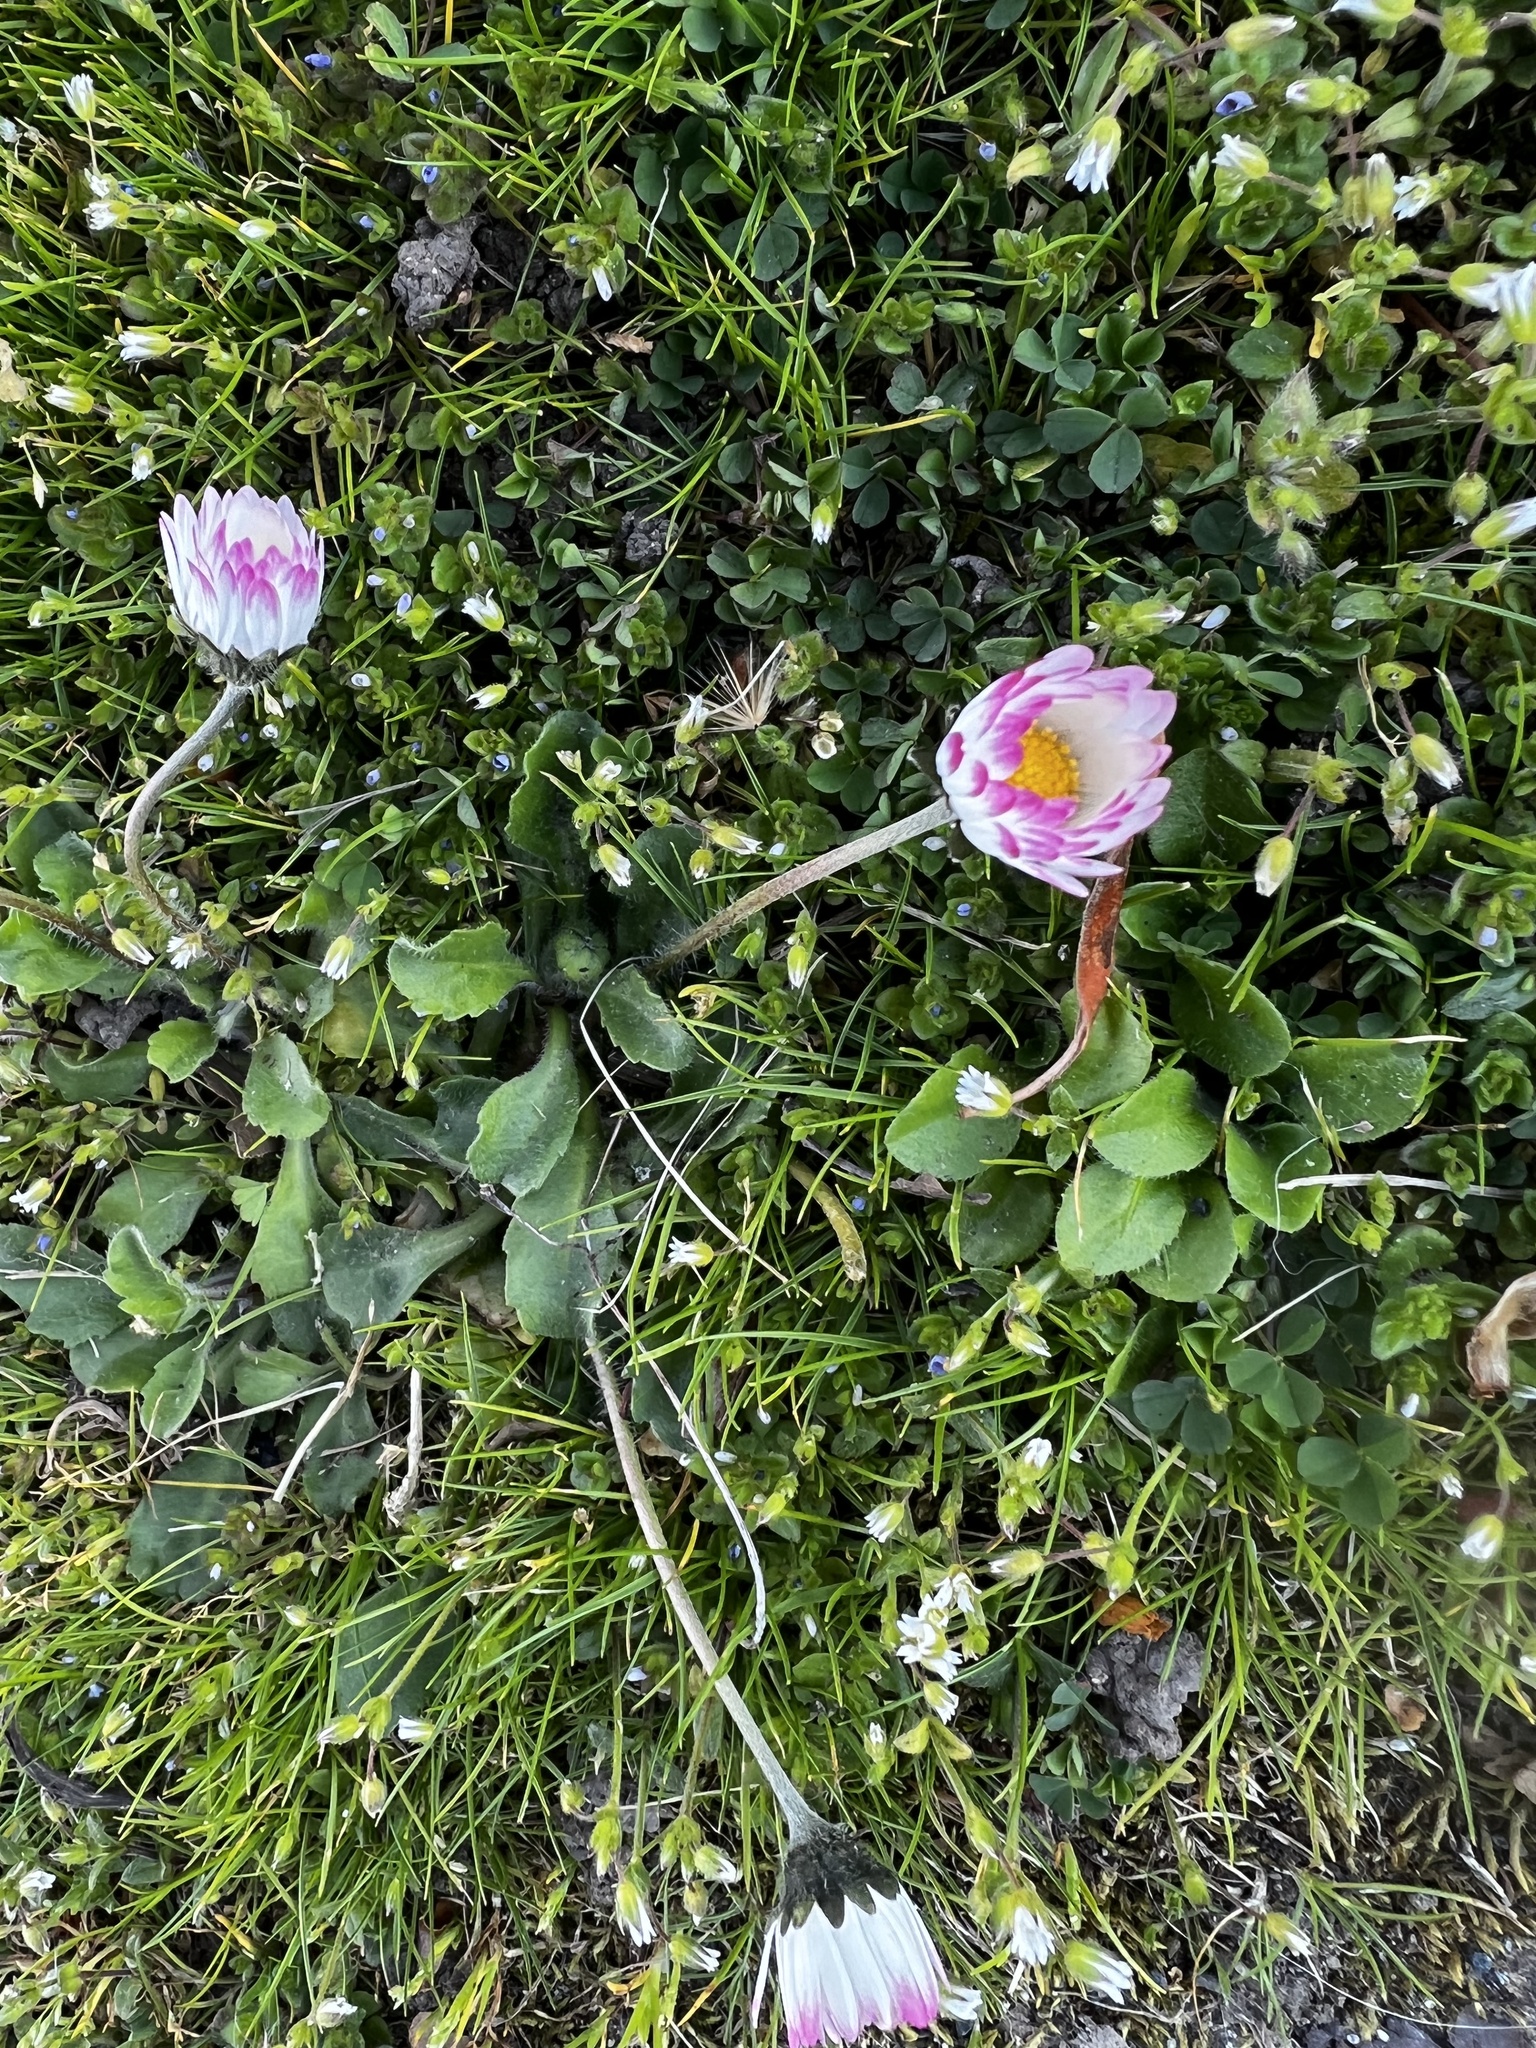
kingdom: Plantae
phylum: Tracheophyta
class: Magnoliopsida
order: Asterales
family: Asteraceae
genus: Bellis
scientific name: Bellis perennis
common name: Lawndaisy
